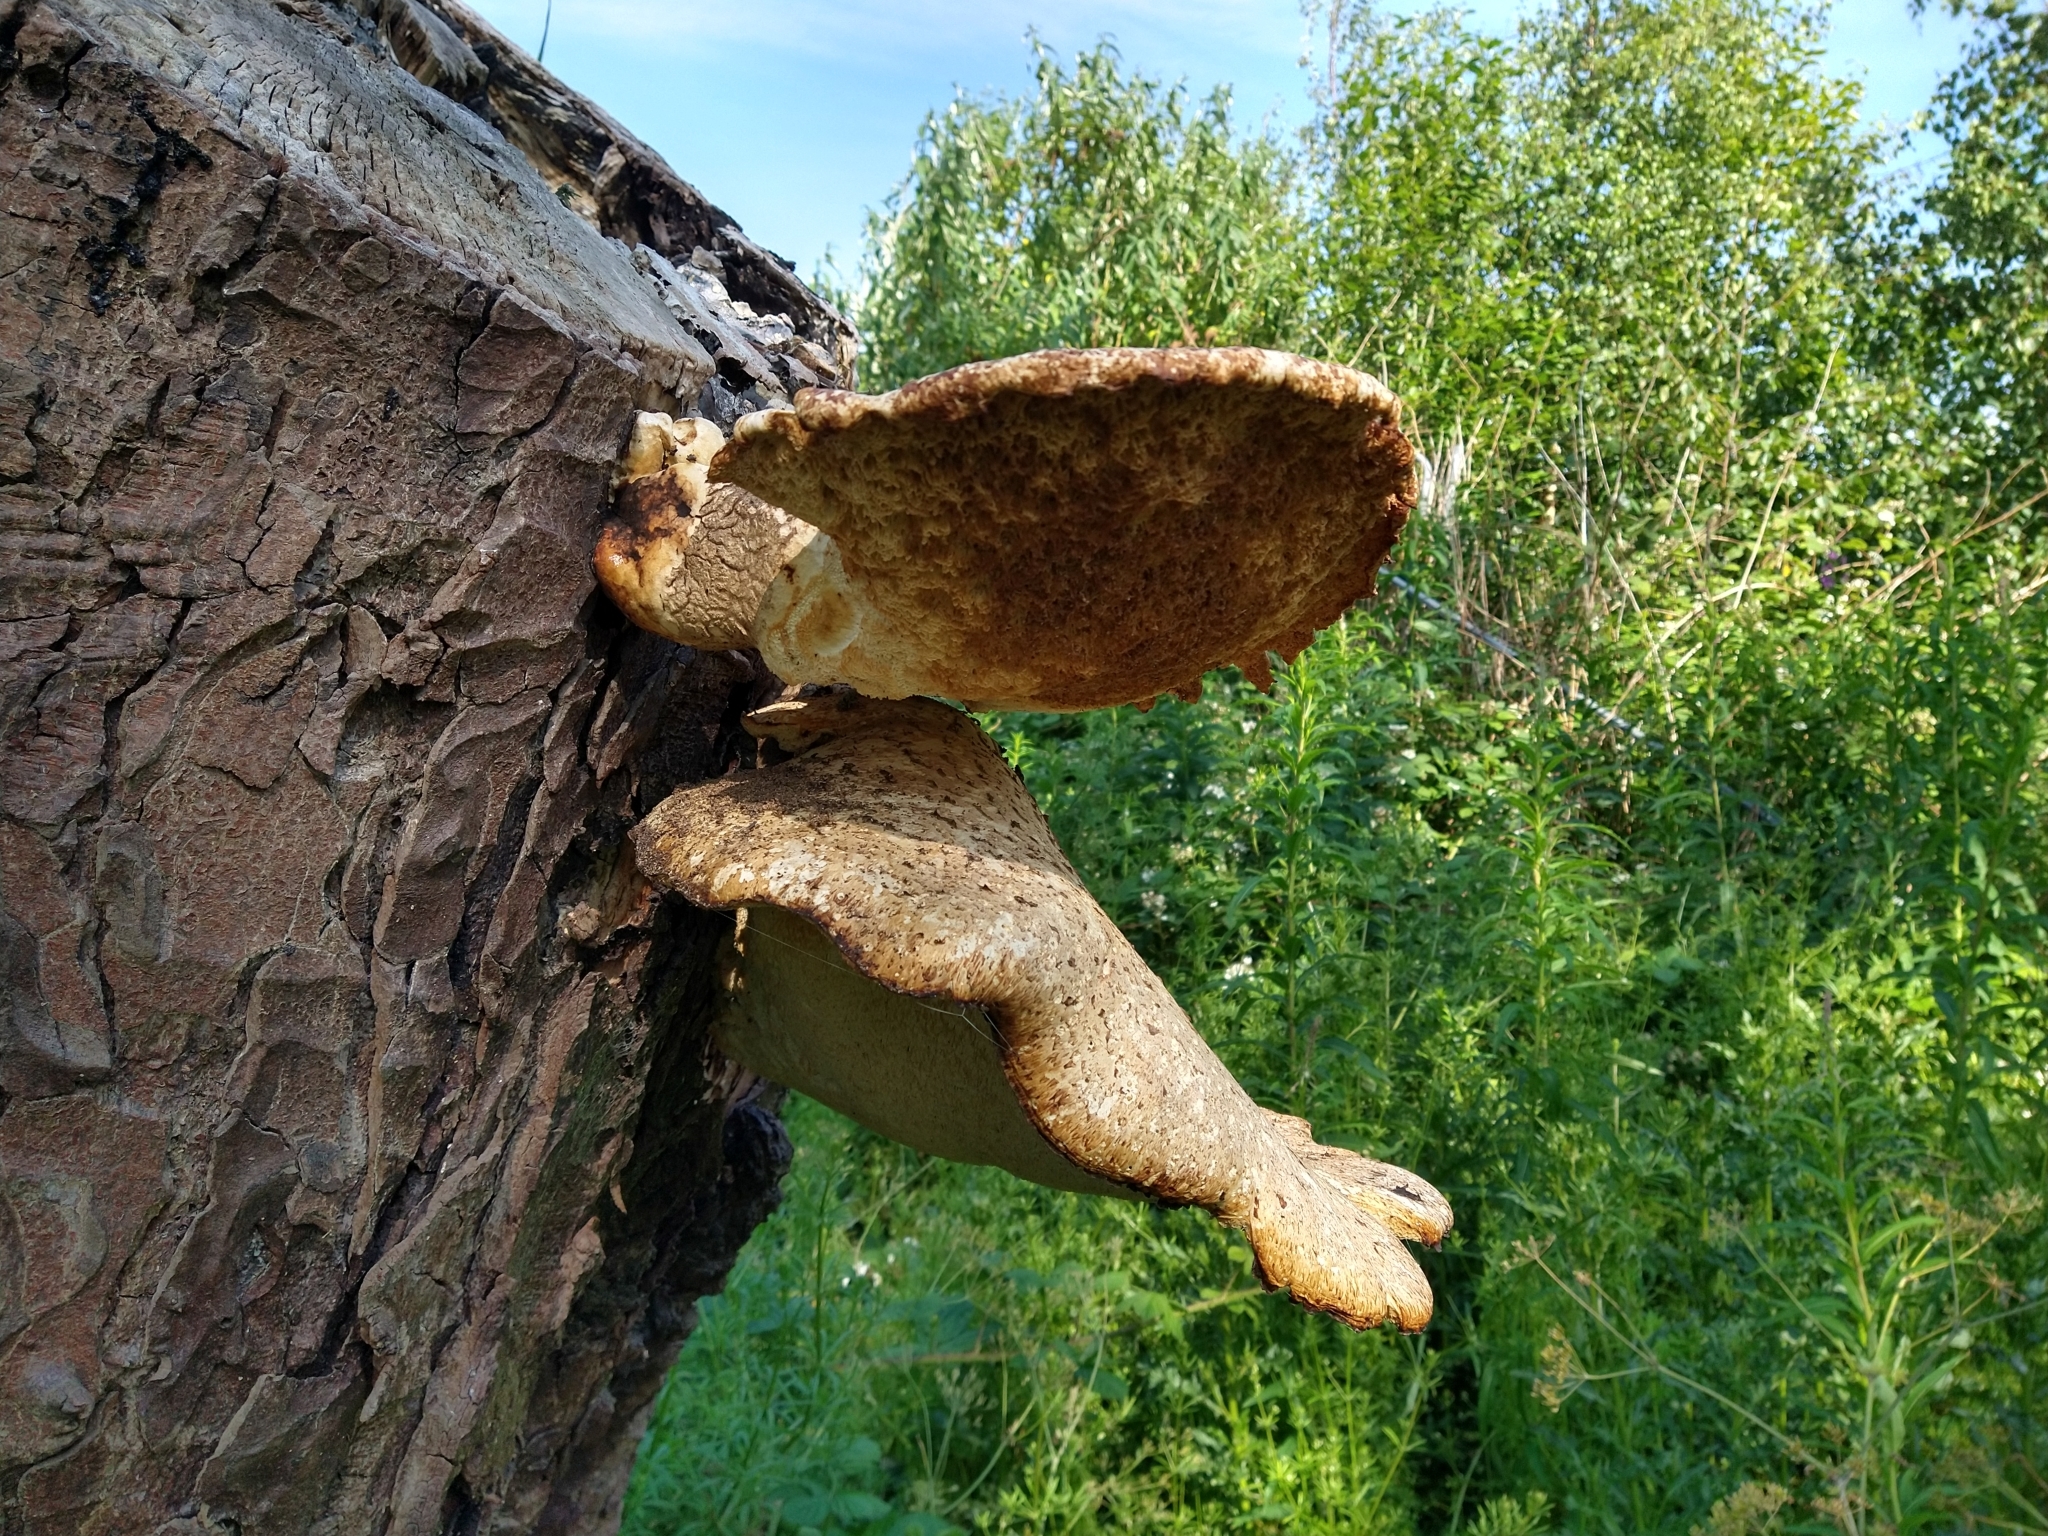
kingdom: Fungi
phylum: Basidiomycota
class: Agaricomycetes
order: Polyporales
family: Polyporaceae
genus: Cerioporus
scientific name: Cerioporus squamosus
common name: Dryad's saddle
